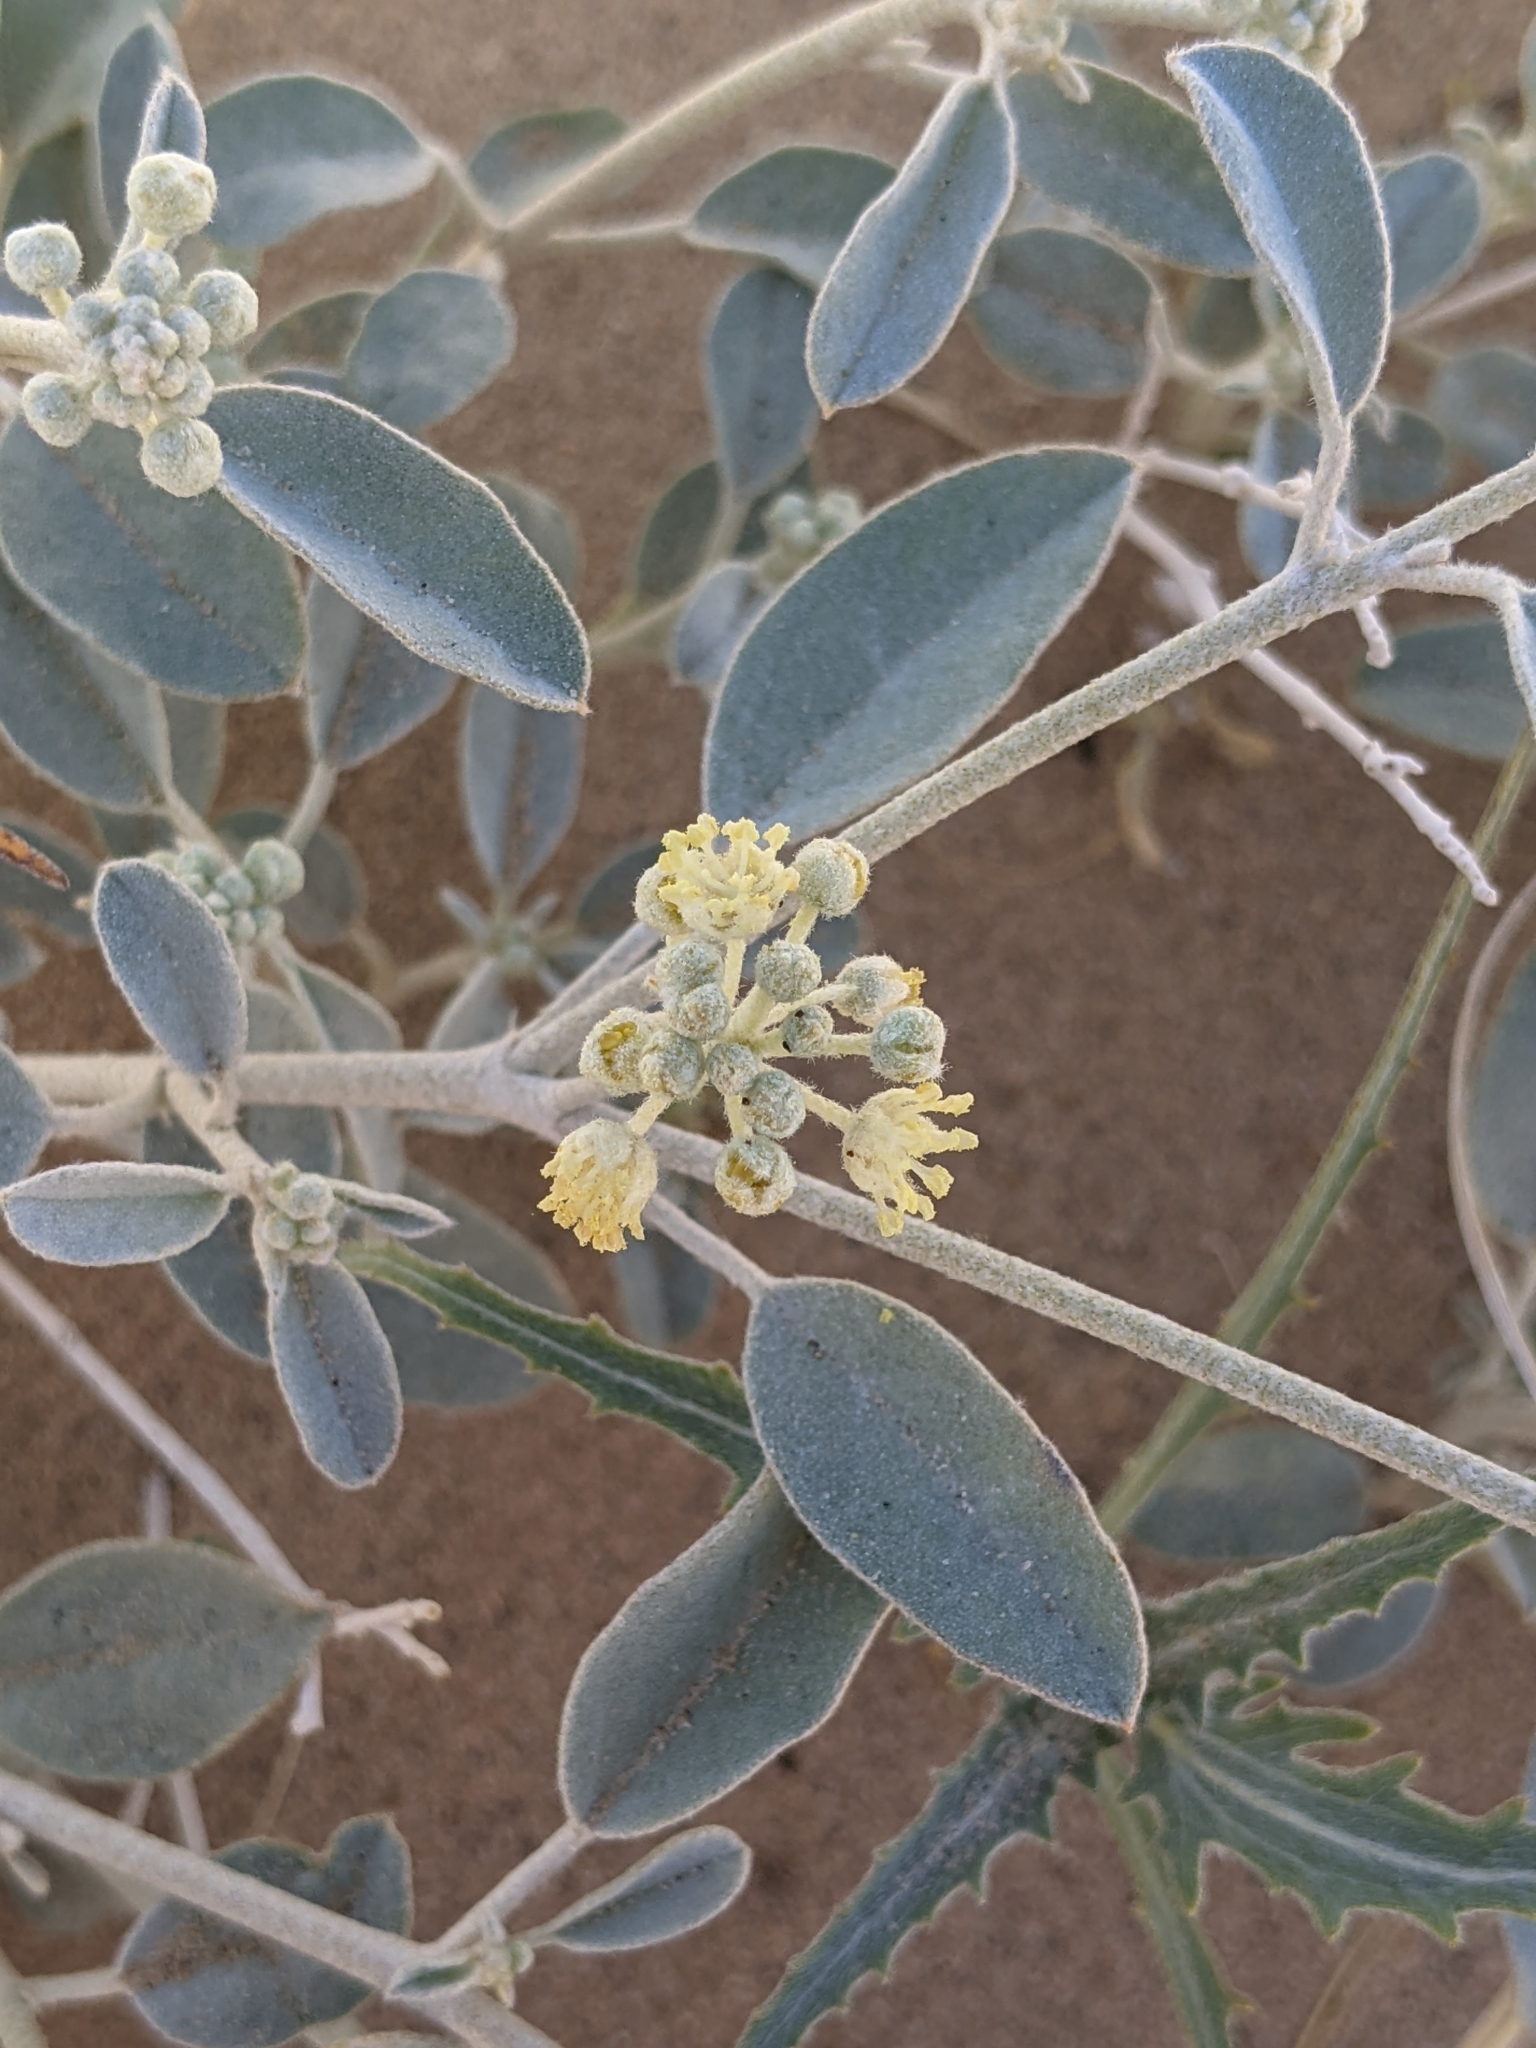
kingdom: Plantae
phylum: Tracheophyta
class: Magnoliopsida
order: Malpighiales
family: Euphorbiaceae
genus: Croton
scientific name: Croton californicus
